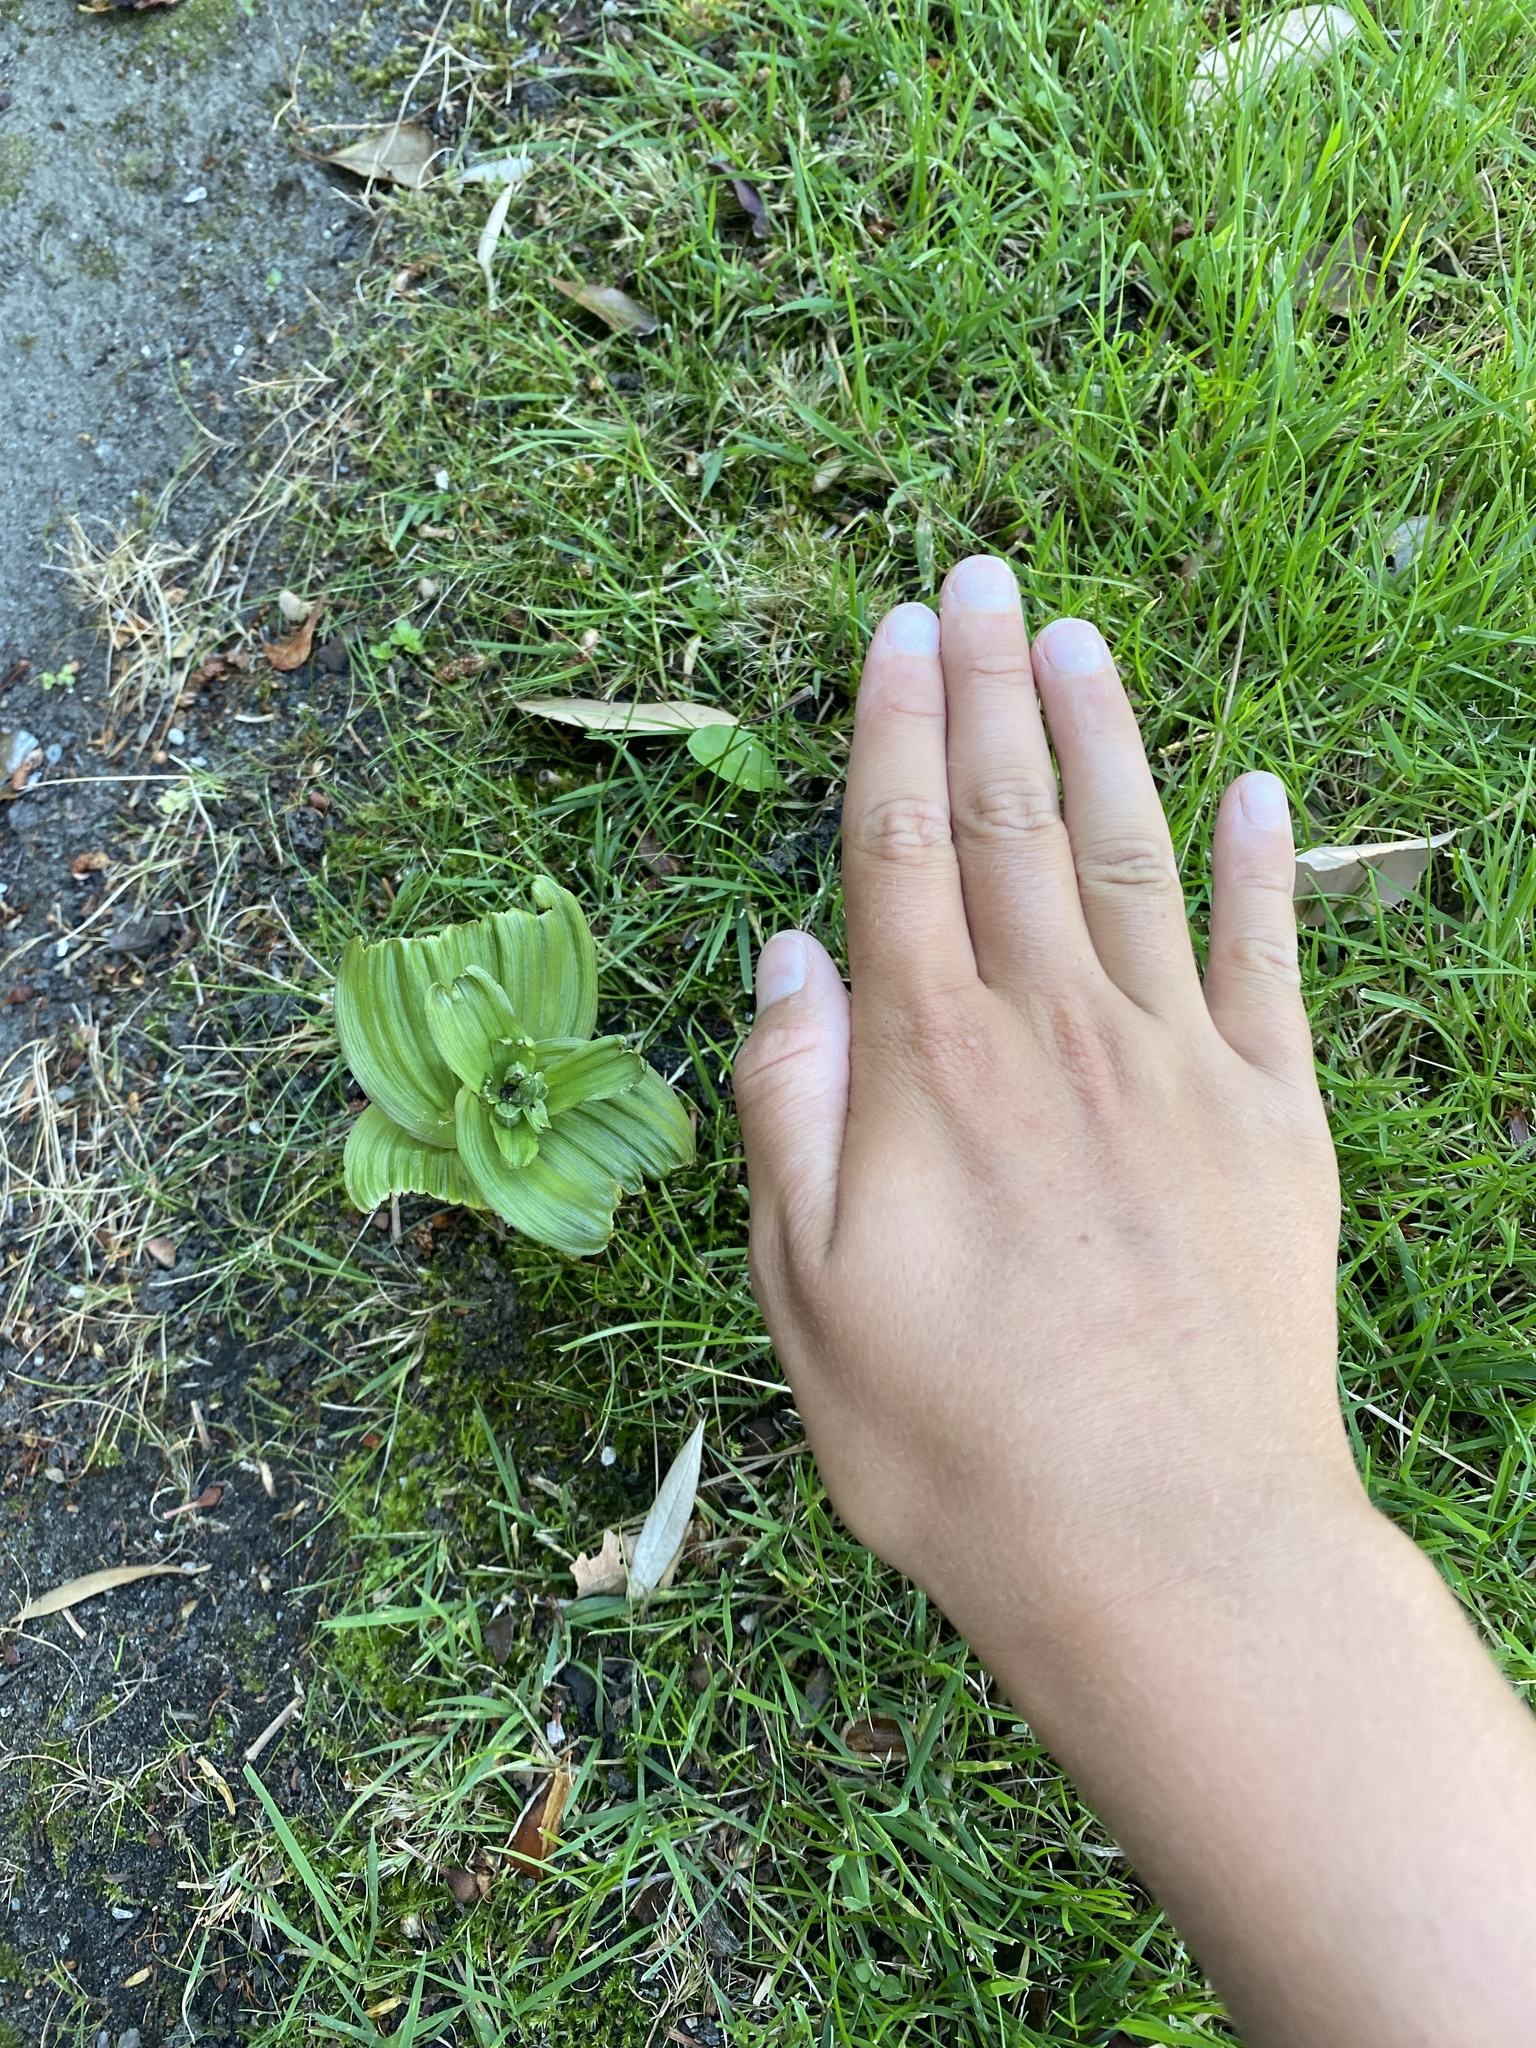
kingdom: Plantae
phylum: Tracheophyta
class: Liliopsida
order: Asparagales
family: Orchidaceae
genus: Epipactis
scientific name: Epipactis helleborine
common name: Broad-leaved helleborine
